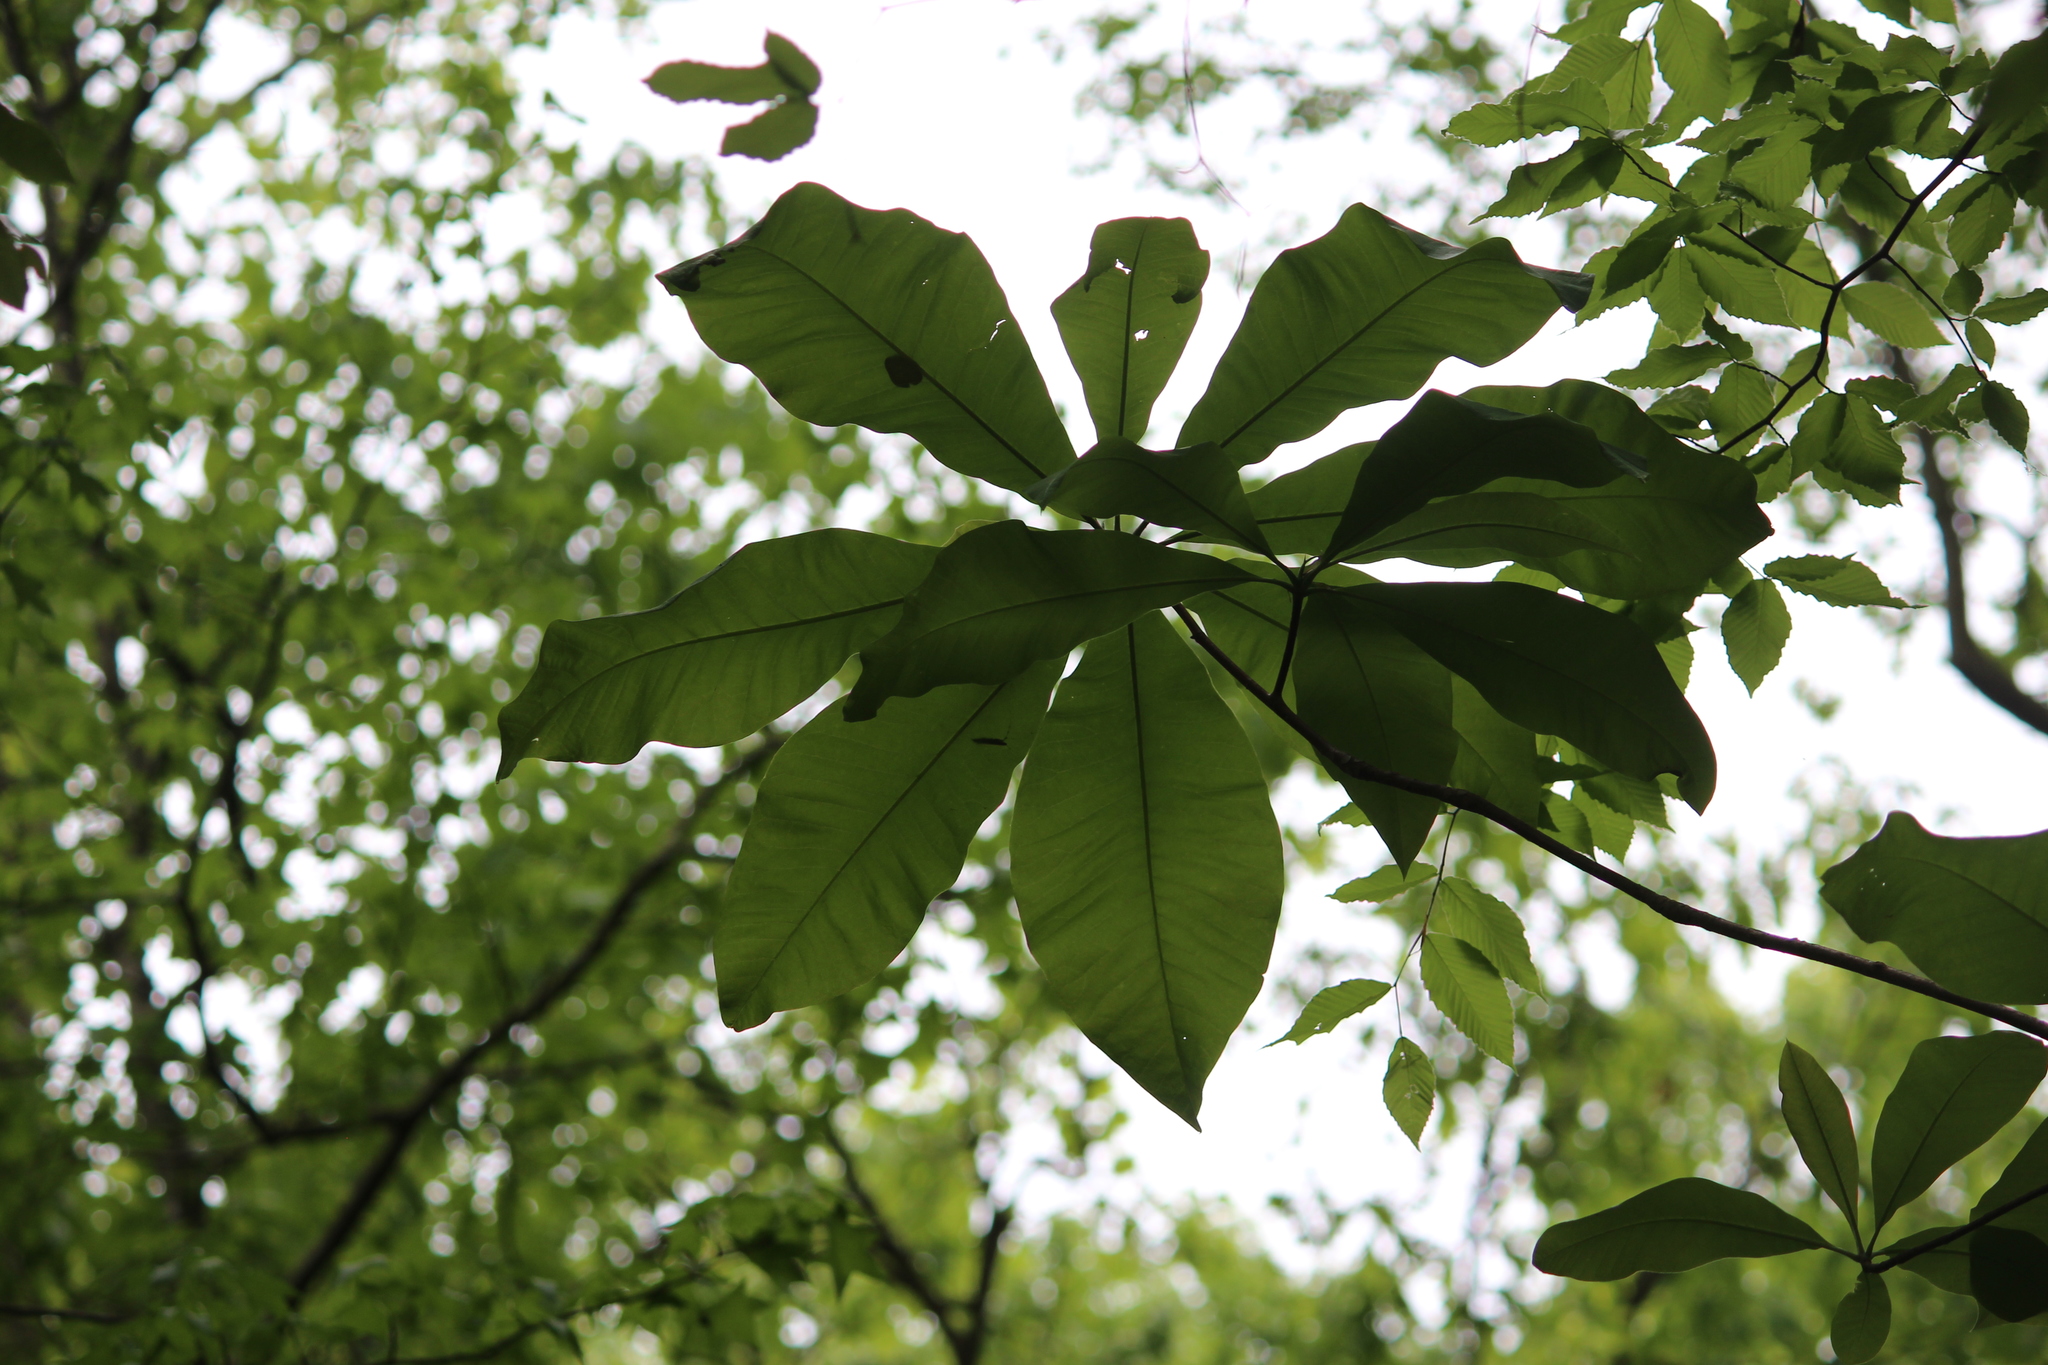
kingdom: Plantae
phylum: Tracheophyta
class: Magnoliopsida
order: Magnoliales
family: Magnoliaceae
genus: Magnolia
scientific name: Magnolia tripetala
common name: Umbrella magnolia
